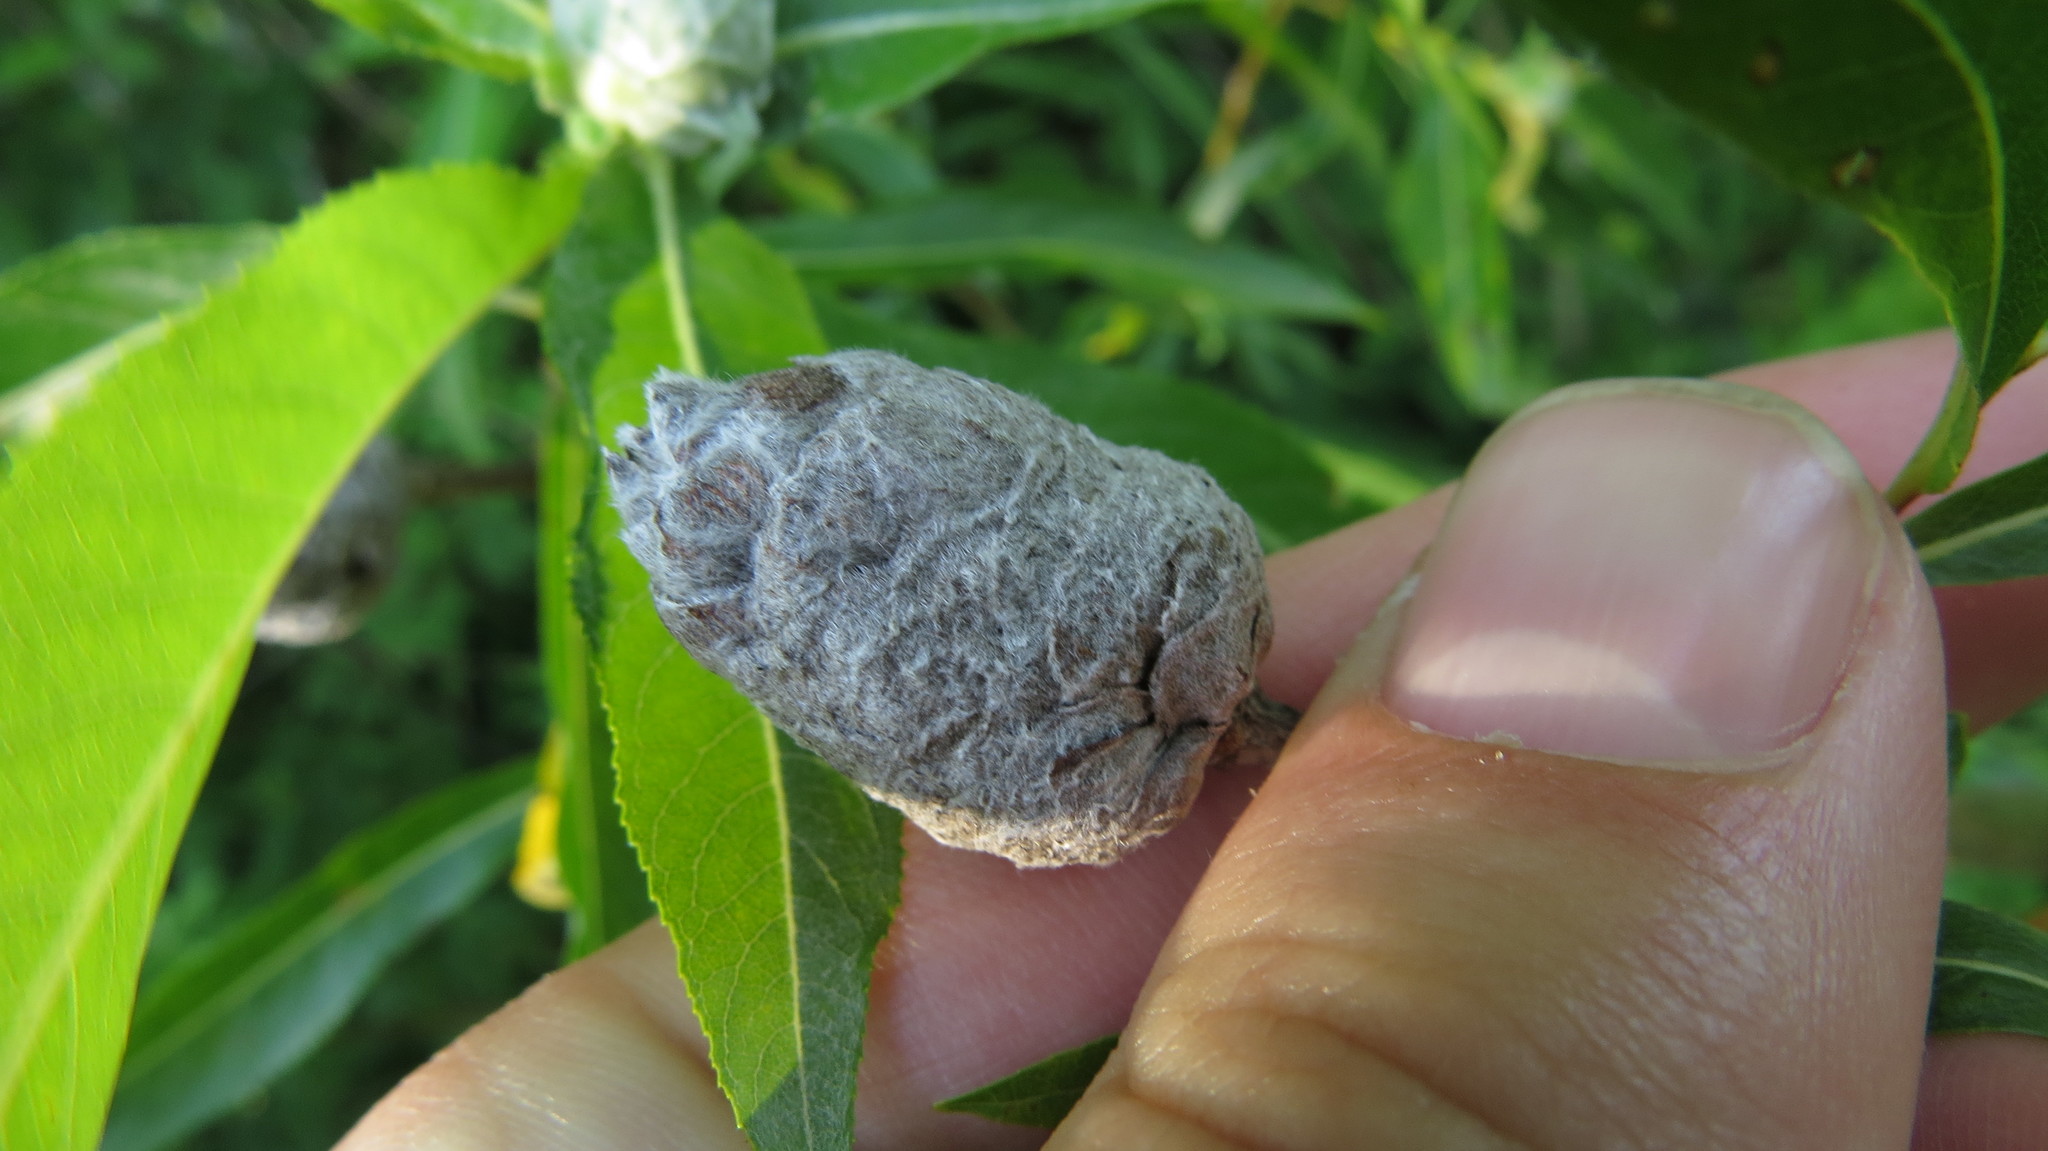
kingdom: Animalia
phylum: Arthropoda
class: Insecta
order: Diptera
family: Cecidomyiidae
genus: Rabdophaga
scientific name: Rabdophaga strobiloides
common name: Willow pinecone gall midge
